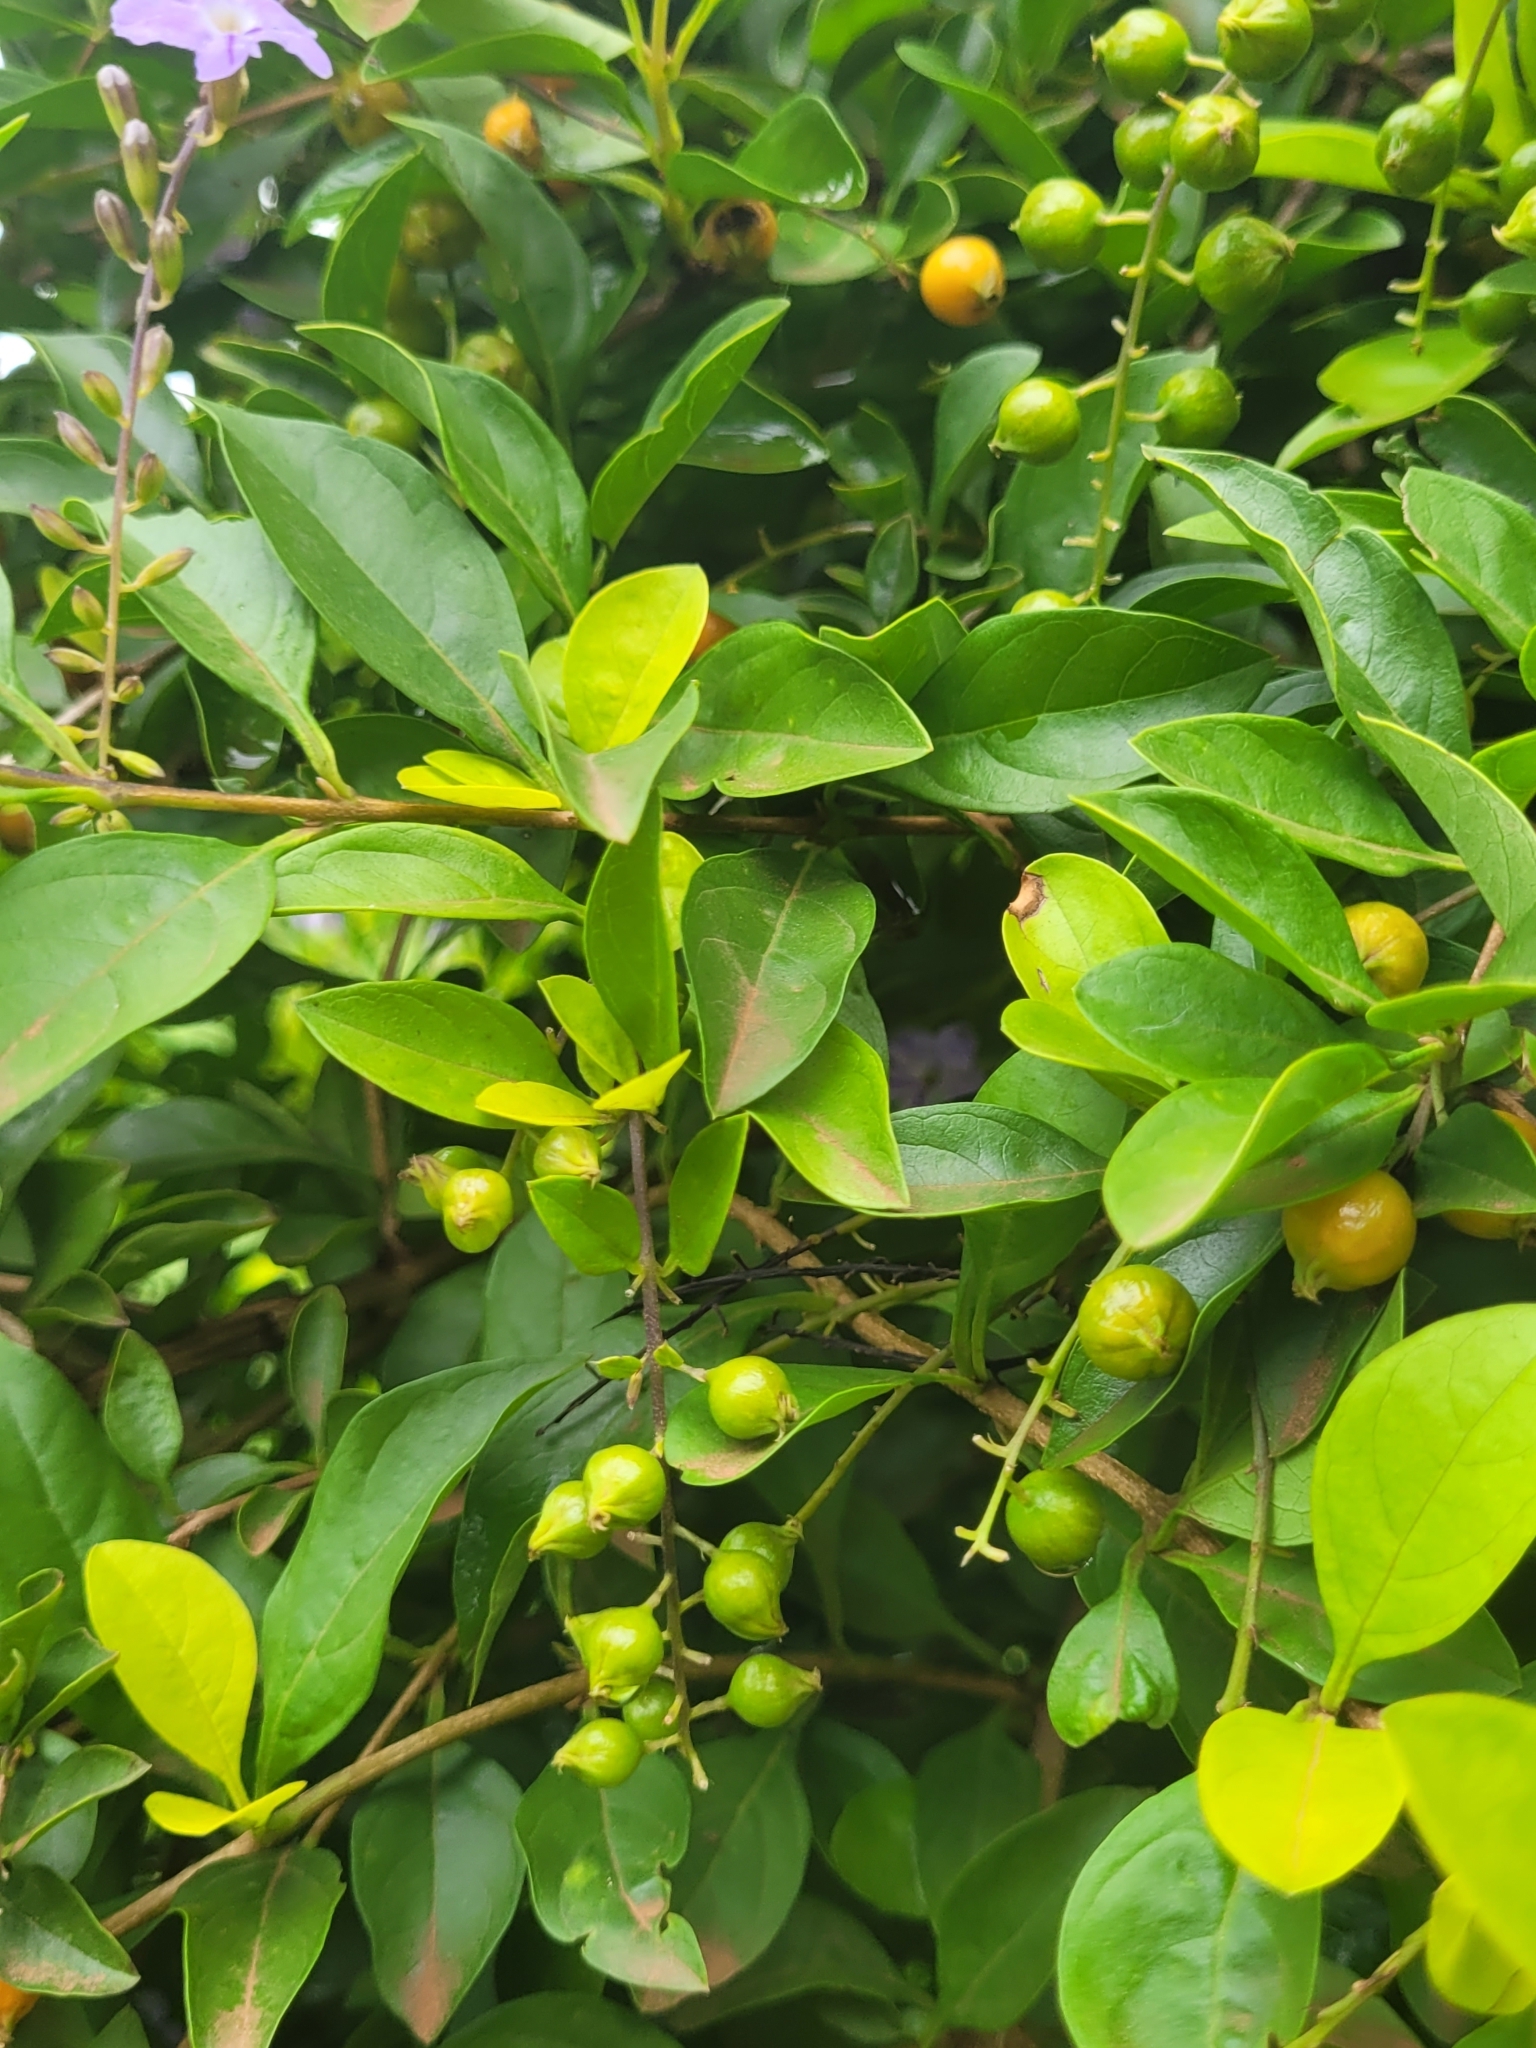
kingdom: Plantae
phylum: Tracheophyta
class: Magnoliopsida
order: Lamiales
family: Verbenaceae
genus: Duranta
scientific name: Duranta erecta
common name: Golden dewdrops
